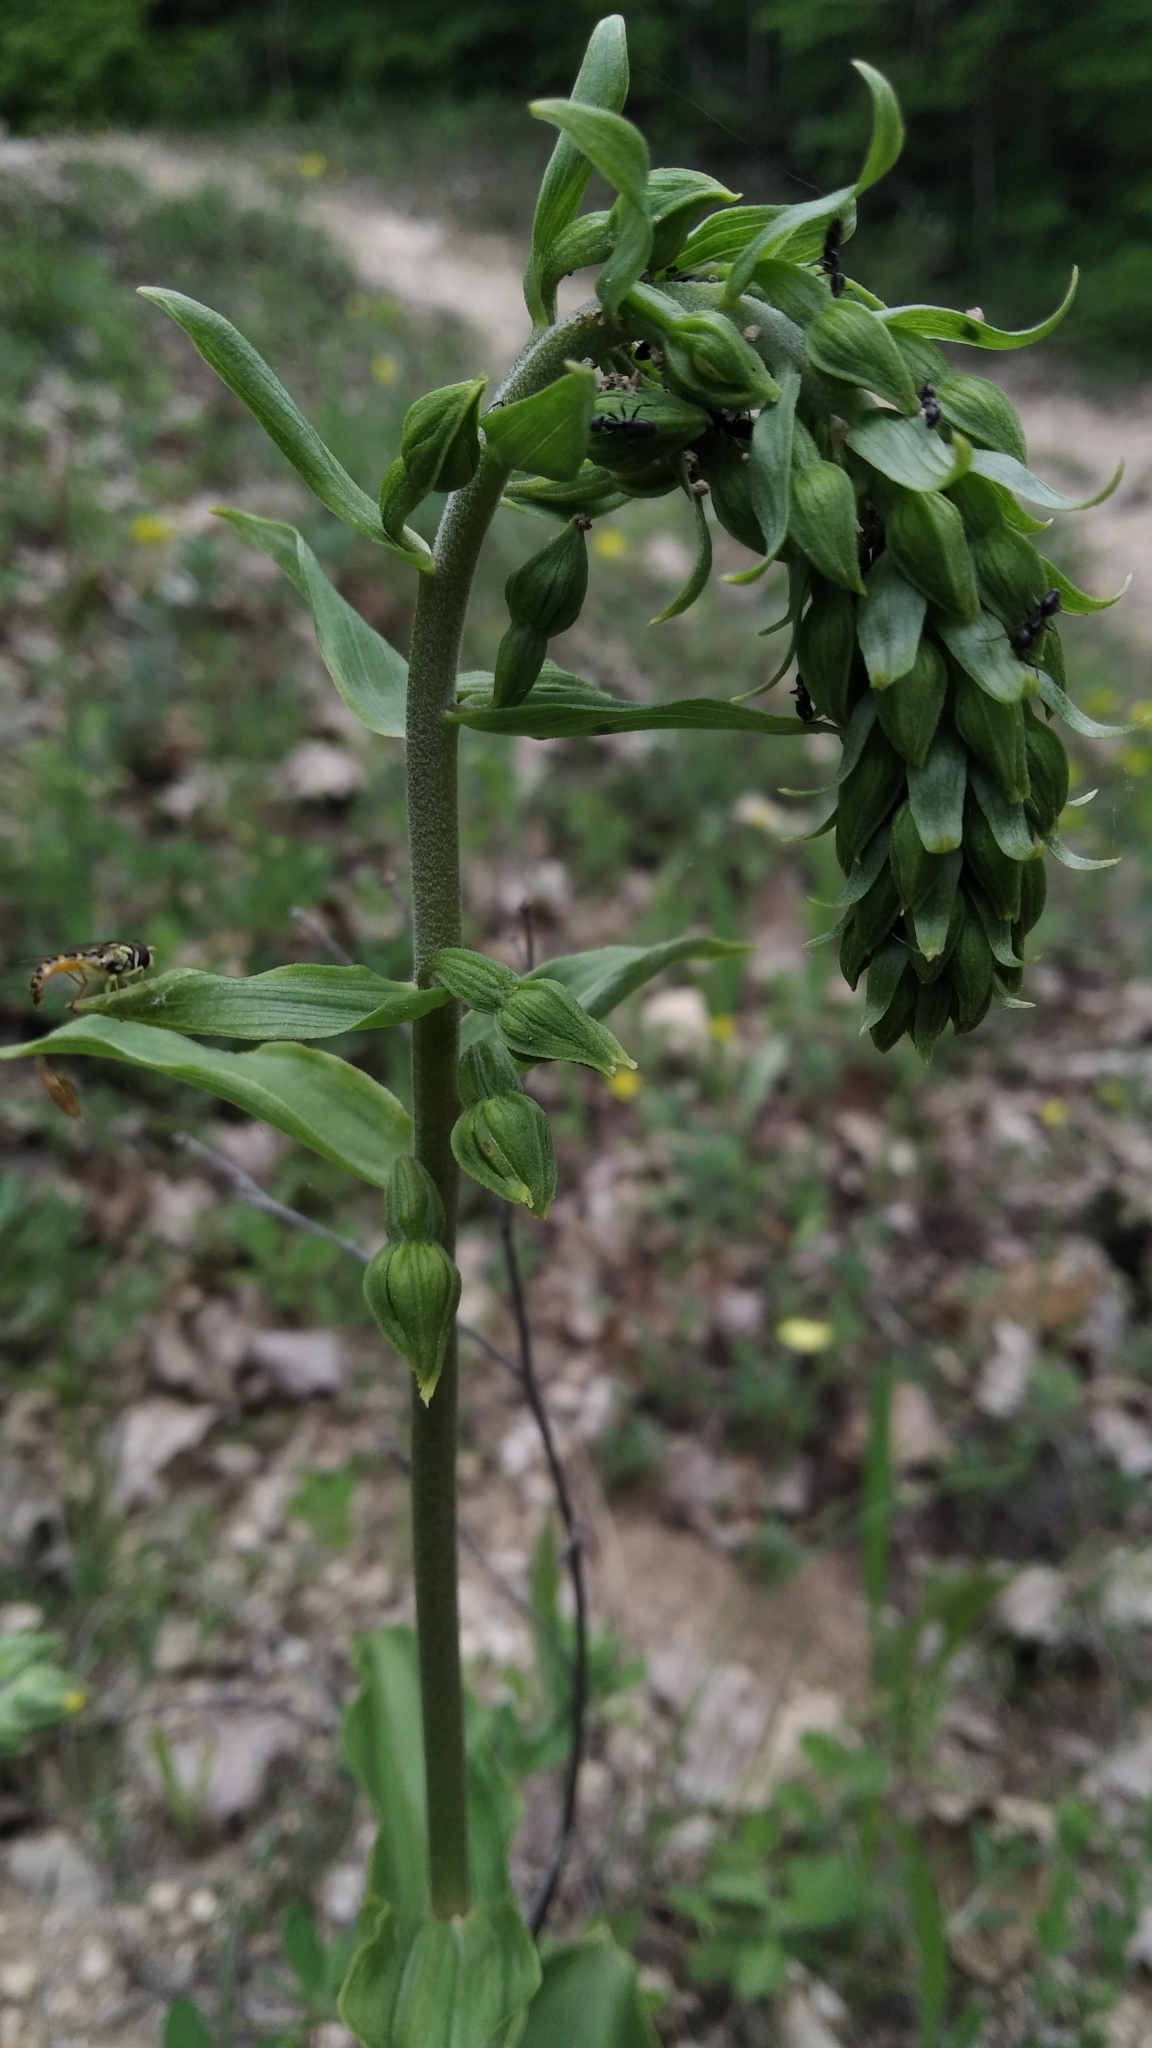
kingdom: Plantae
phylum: Tracheophyta
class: Liliopsida
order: Asparagales
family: Orchidaceae
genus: Epipactis
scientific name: Epipactis helleborine
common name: Broad-leaved helleborine
